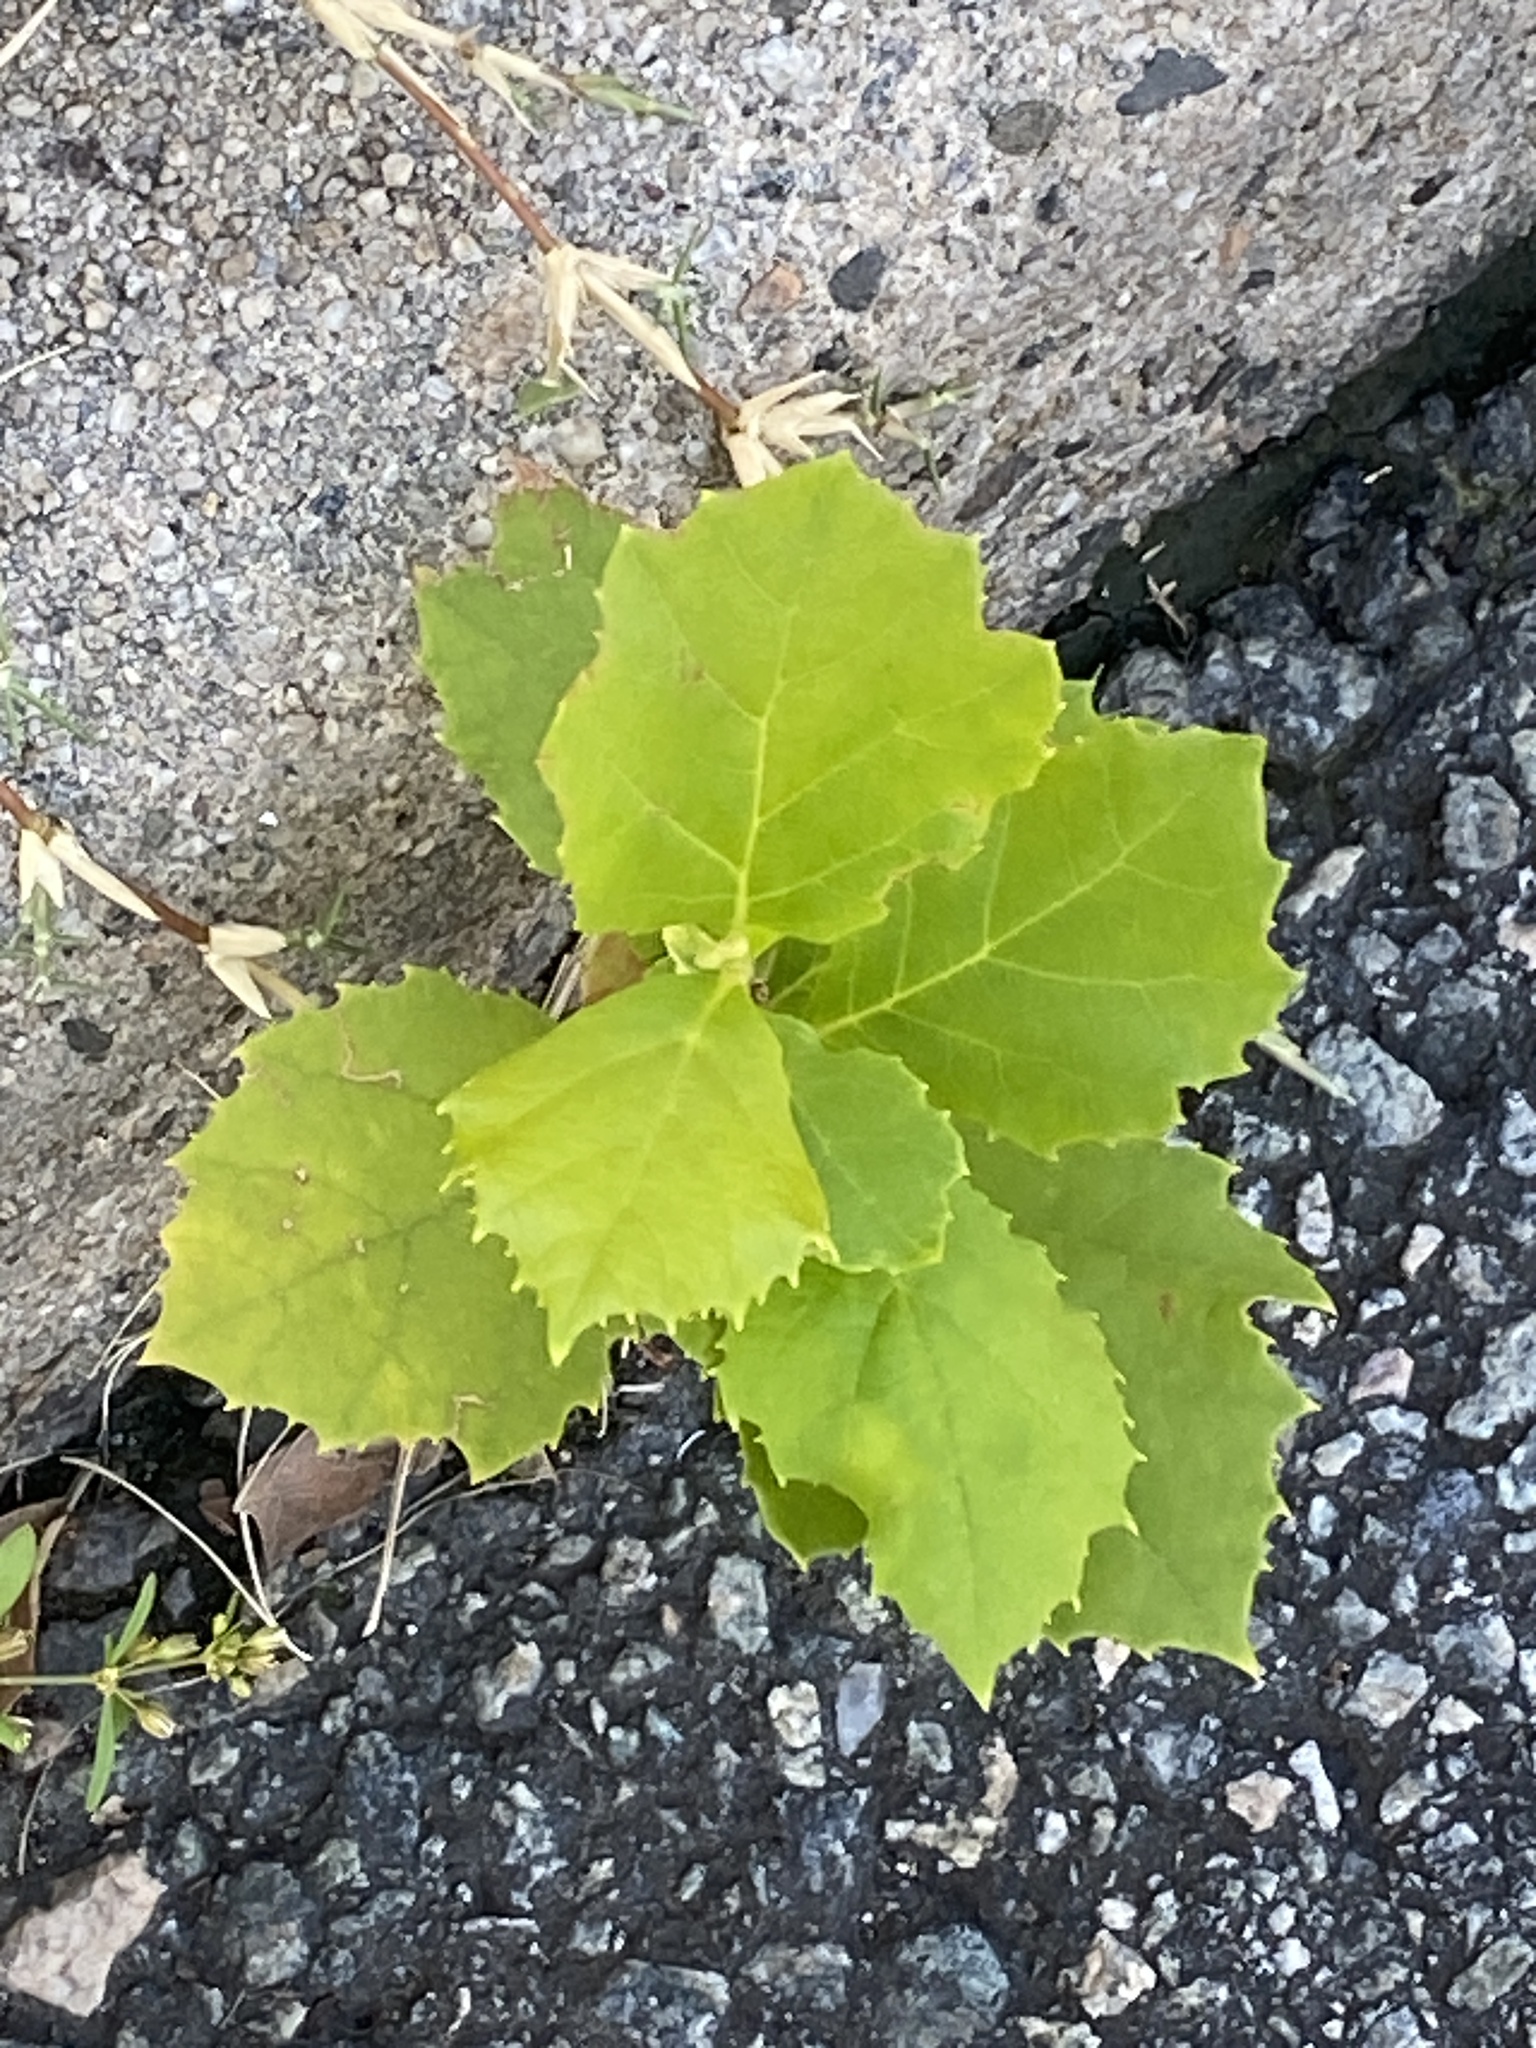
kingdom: Plantae
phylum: Tracheophyta
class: Magnoliopsida
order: Proteales
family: Platanaceae
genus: Platanus
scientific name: Platanus occidentalis
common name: American sycamore
